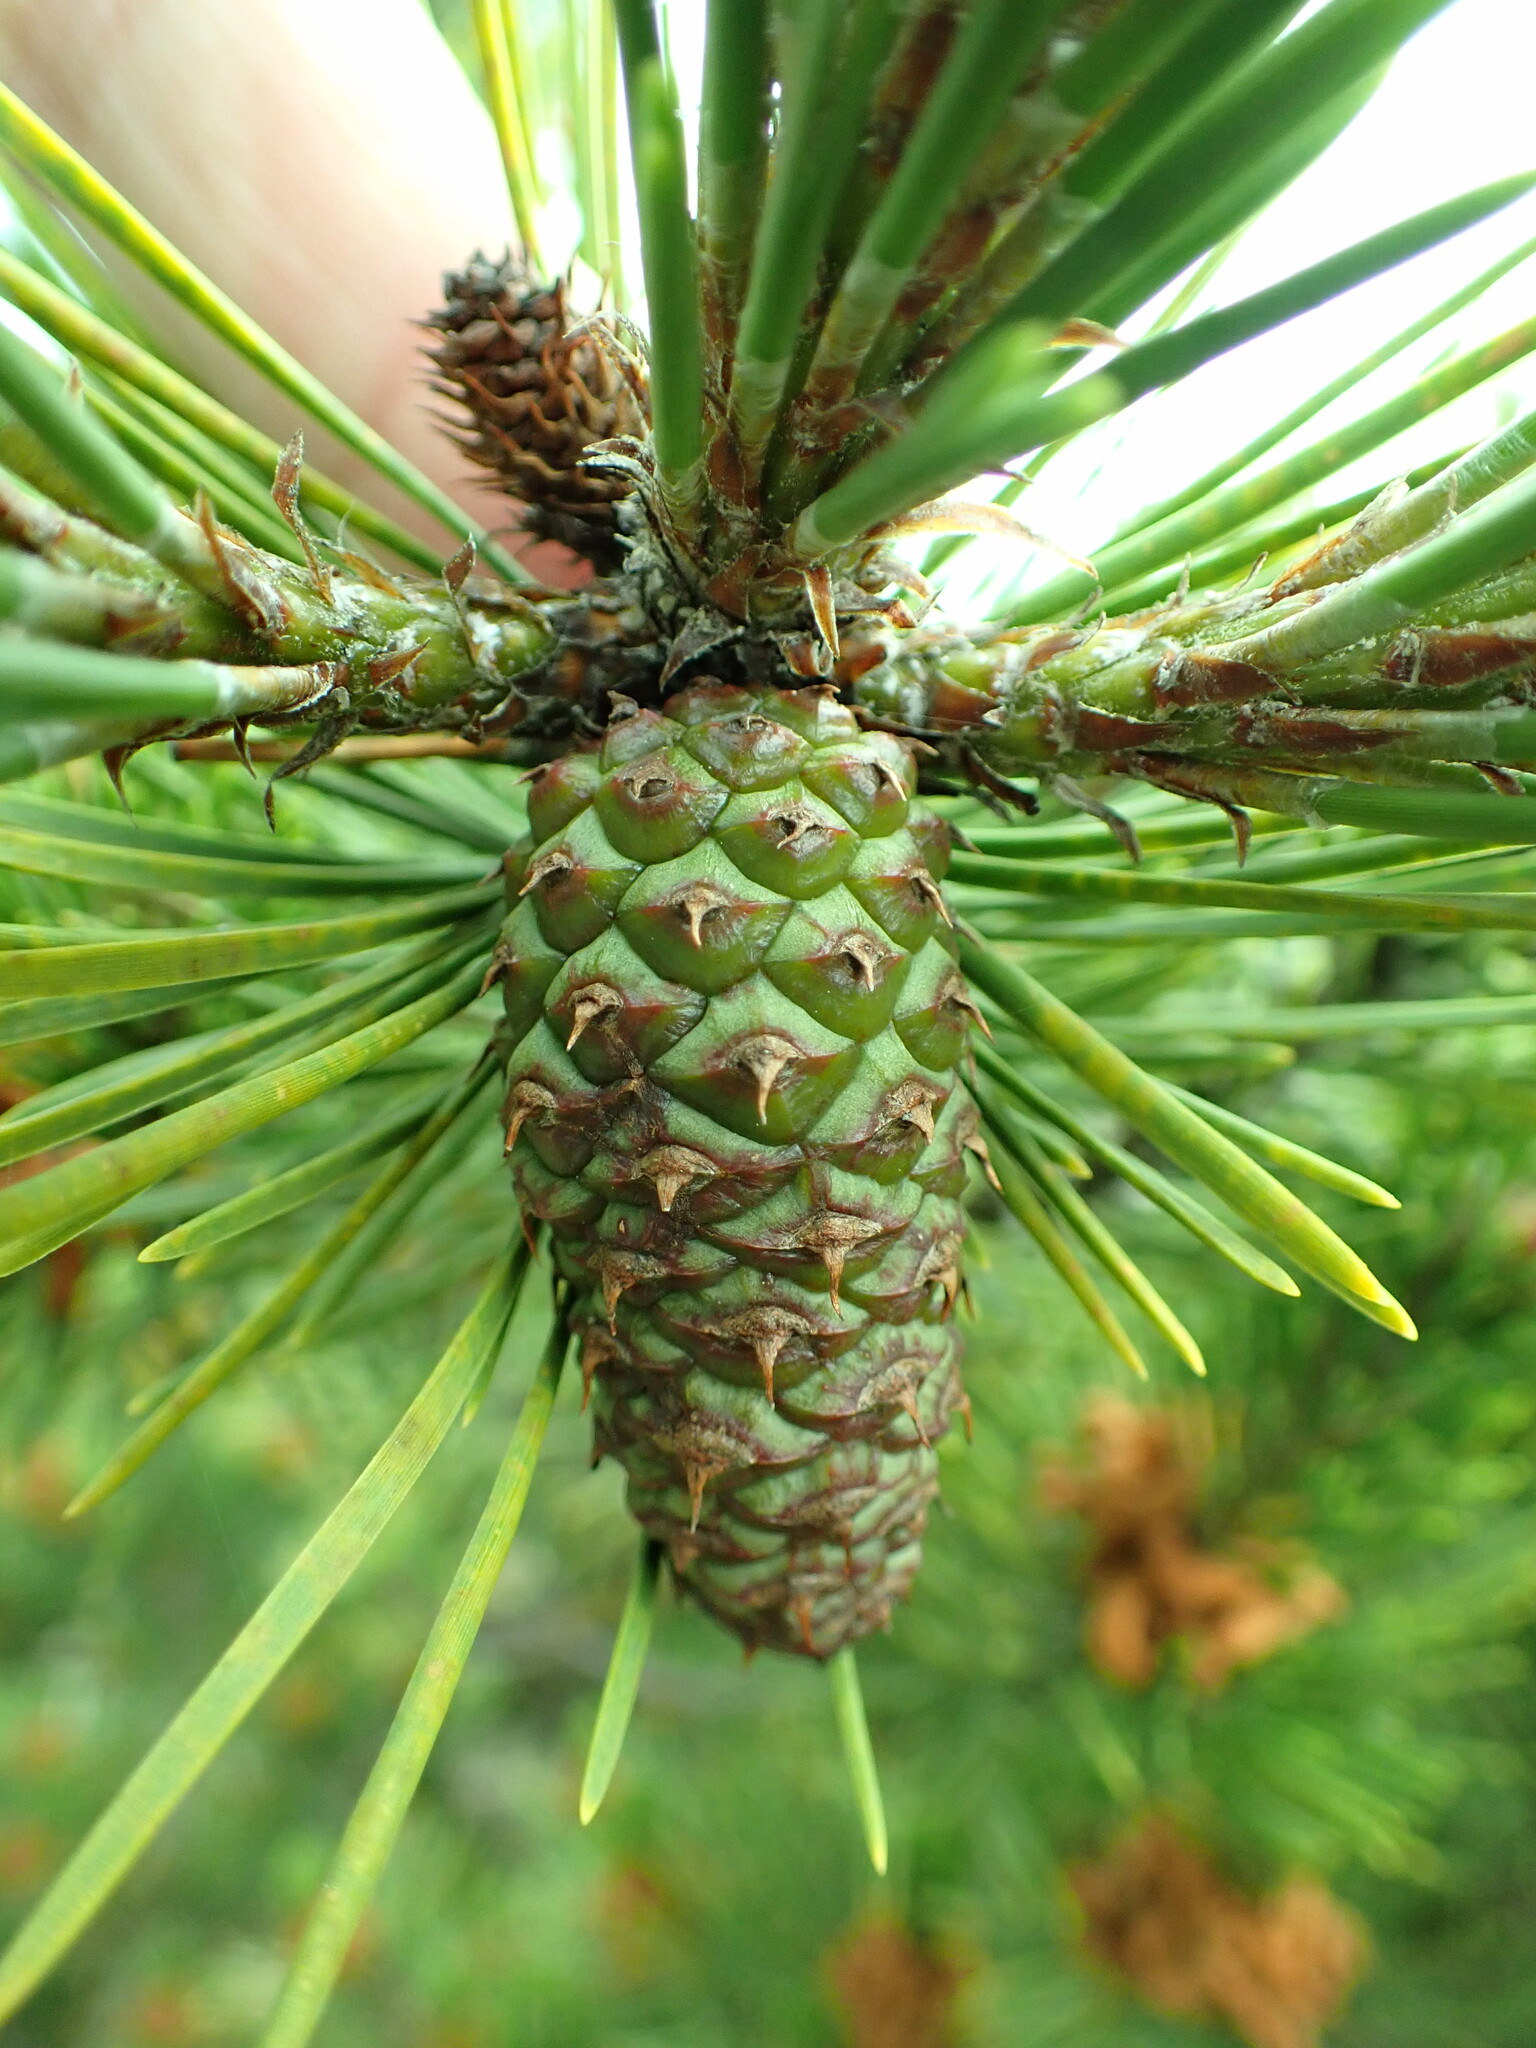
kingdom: Plantae
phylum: Tracheophyta
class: Pinopsida
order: Pinales
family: Pinaceae
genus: Pinus
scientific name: Pinus contorta
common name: Lodgepole pine
